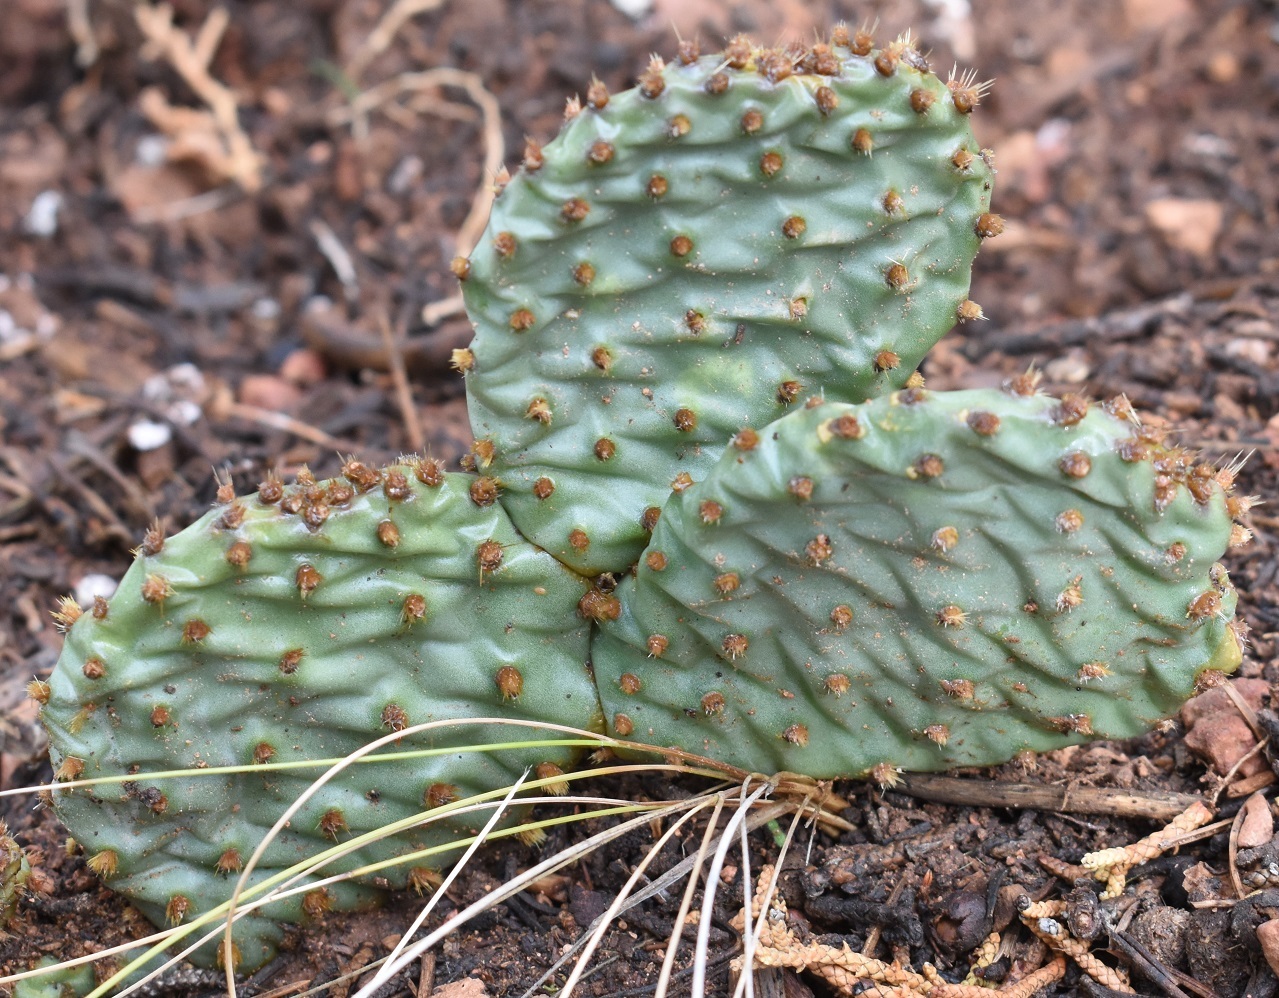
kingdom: Plantae
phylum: Tracheophyta
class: Magnoliopsida
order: Caryophyllales
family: Cactaceae
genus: Opuntia
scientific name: Opuntia aurea
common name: Golden prickly-pear
